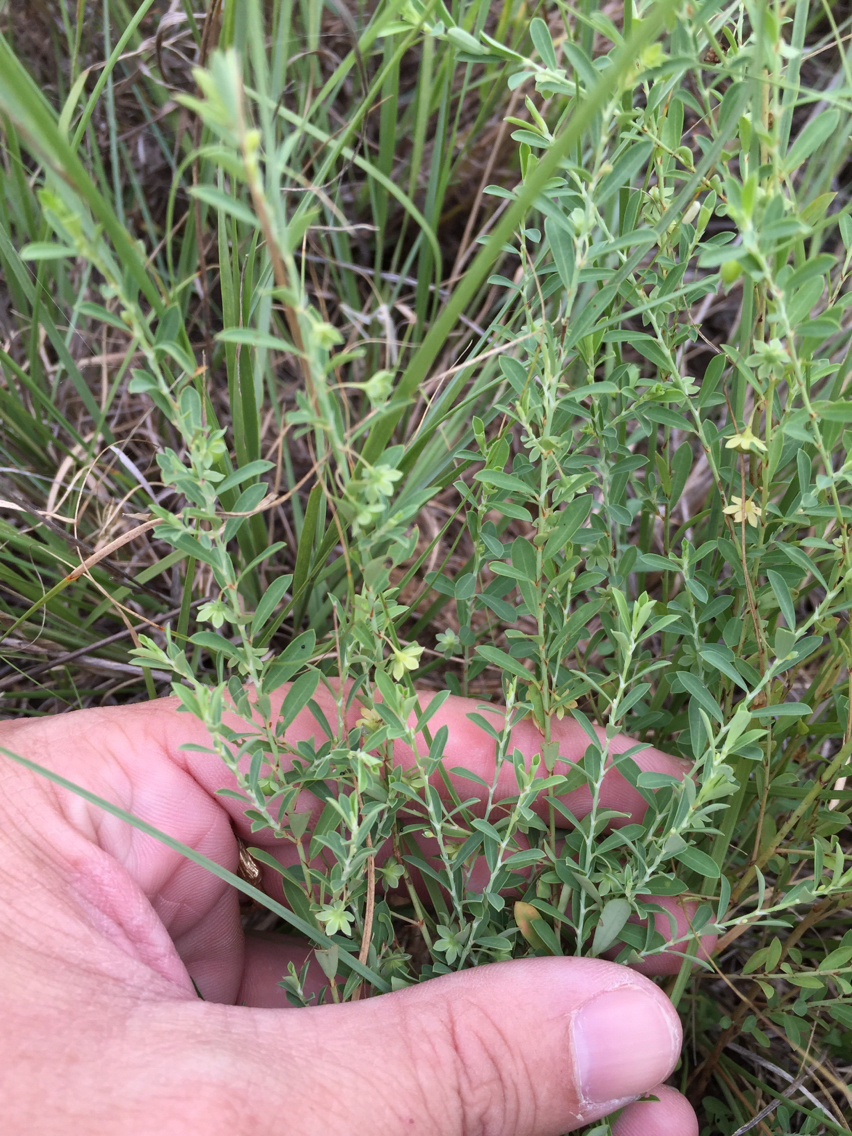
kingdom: Plantae
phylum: Tracheophyta
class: Magnoliopsida
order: Malpighiales
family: Phyllanthaceae
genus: Phyllanthus
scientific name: Phyllanthus polygonoides
